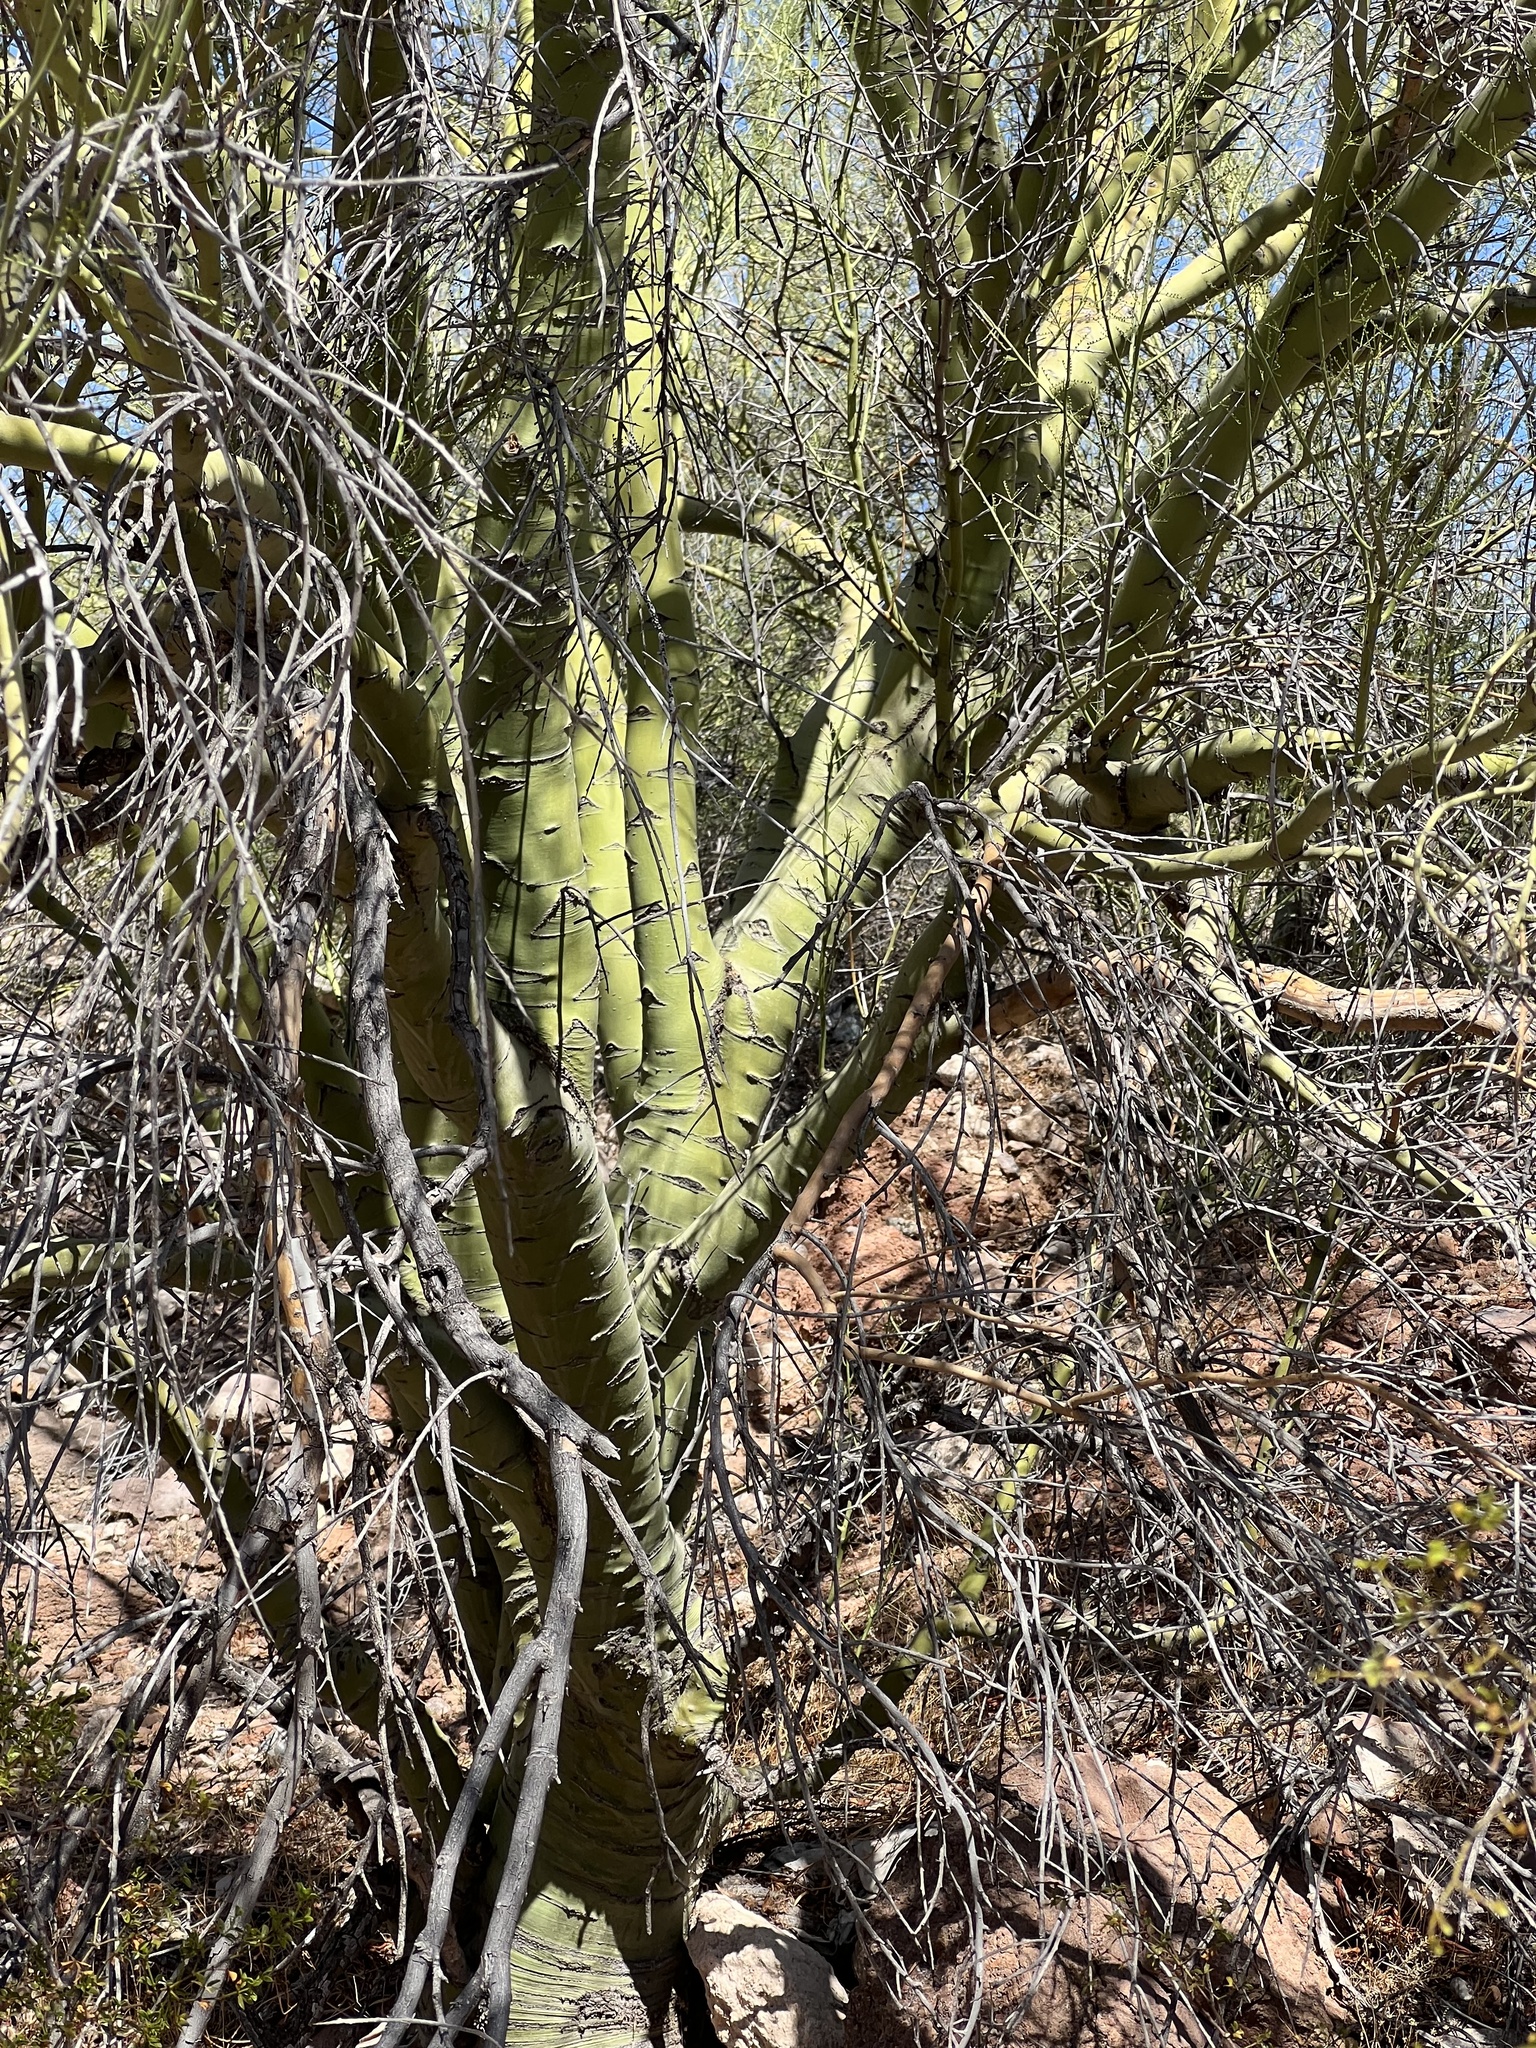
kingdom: Plantae
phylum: Tracheophyta
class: Magnoliopsida
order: Fabales
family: Fabaceae
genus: Parkinsonia
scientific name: Parkinsonia microphylla
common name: Yellow paloverde
